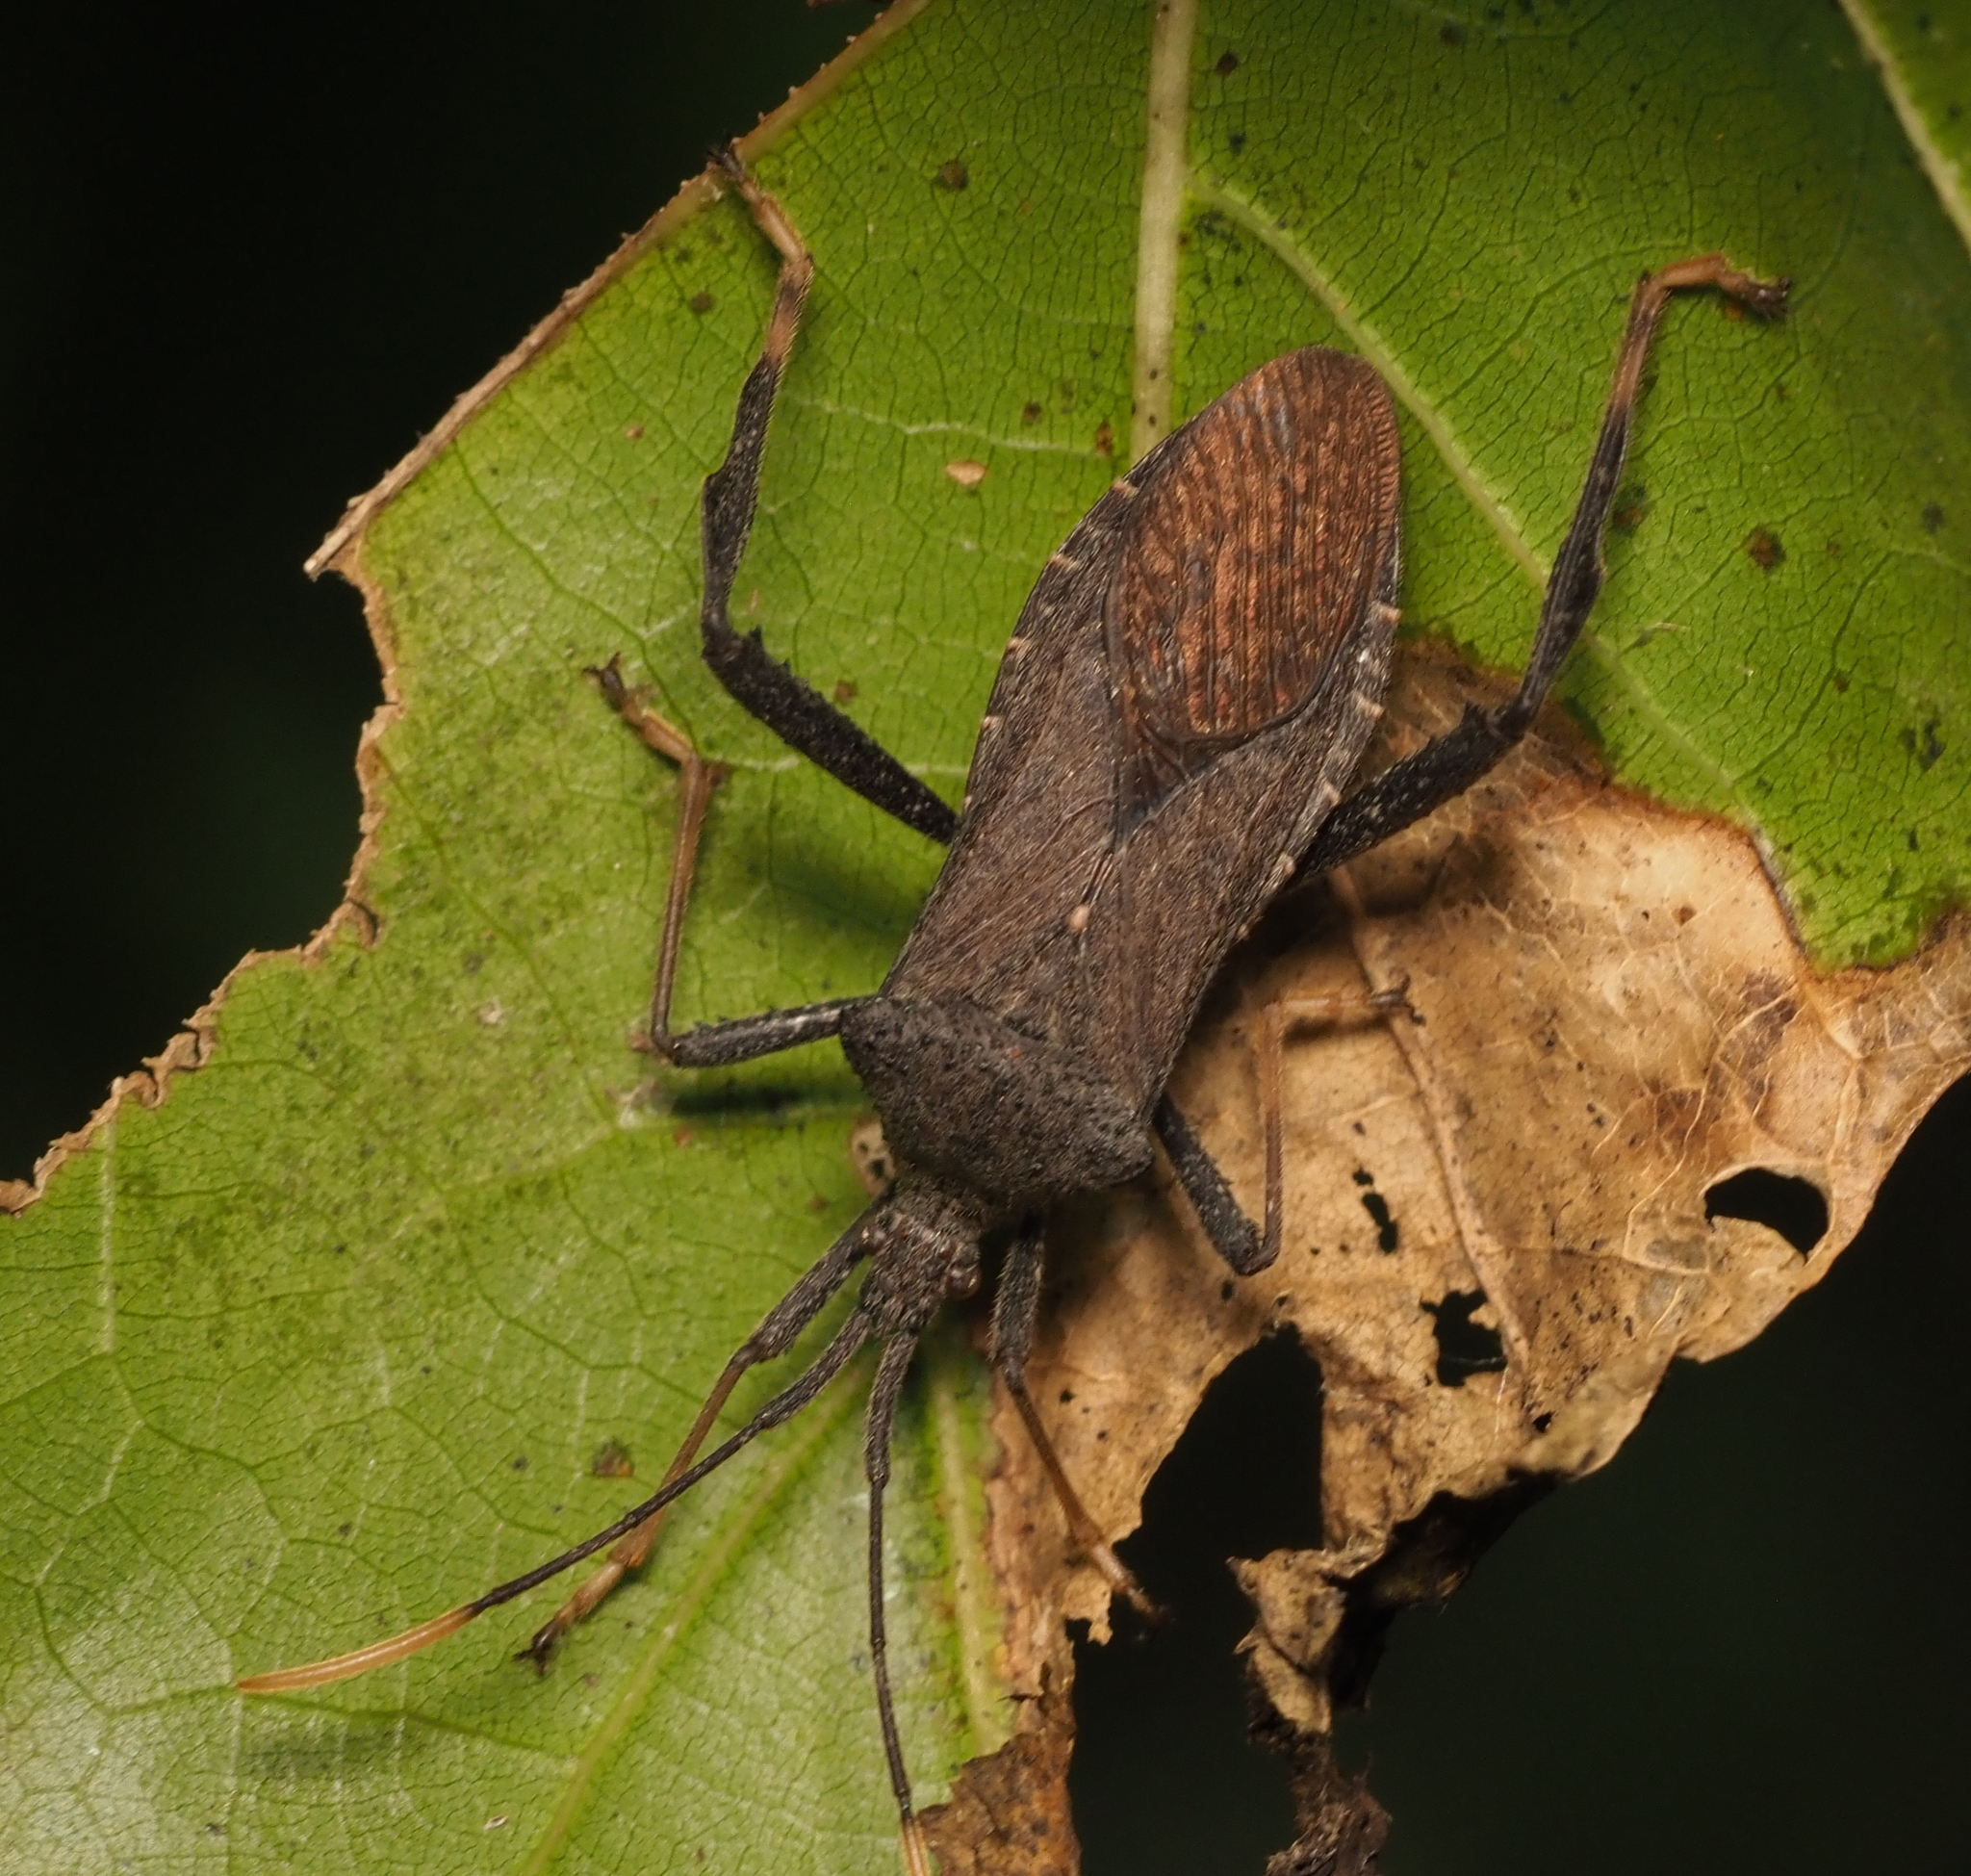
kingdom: Animalia
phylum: Arthropoda
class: Insecta
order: Hemiptera
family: Coreidae
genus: Acanthocephala
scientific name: Acanthocephala terminalis
